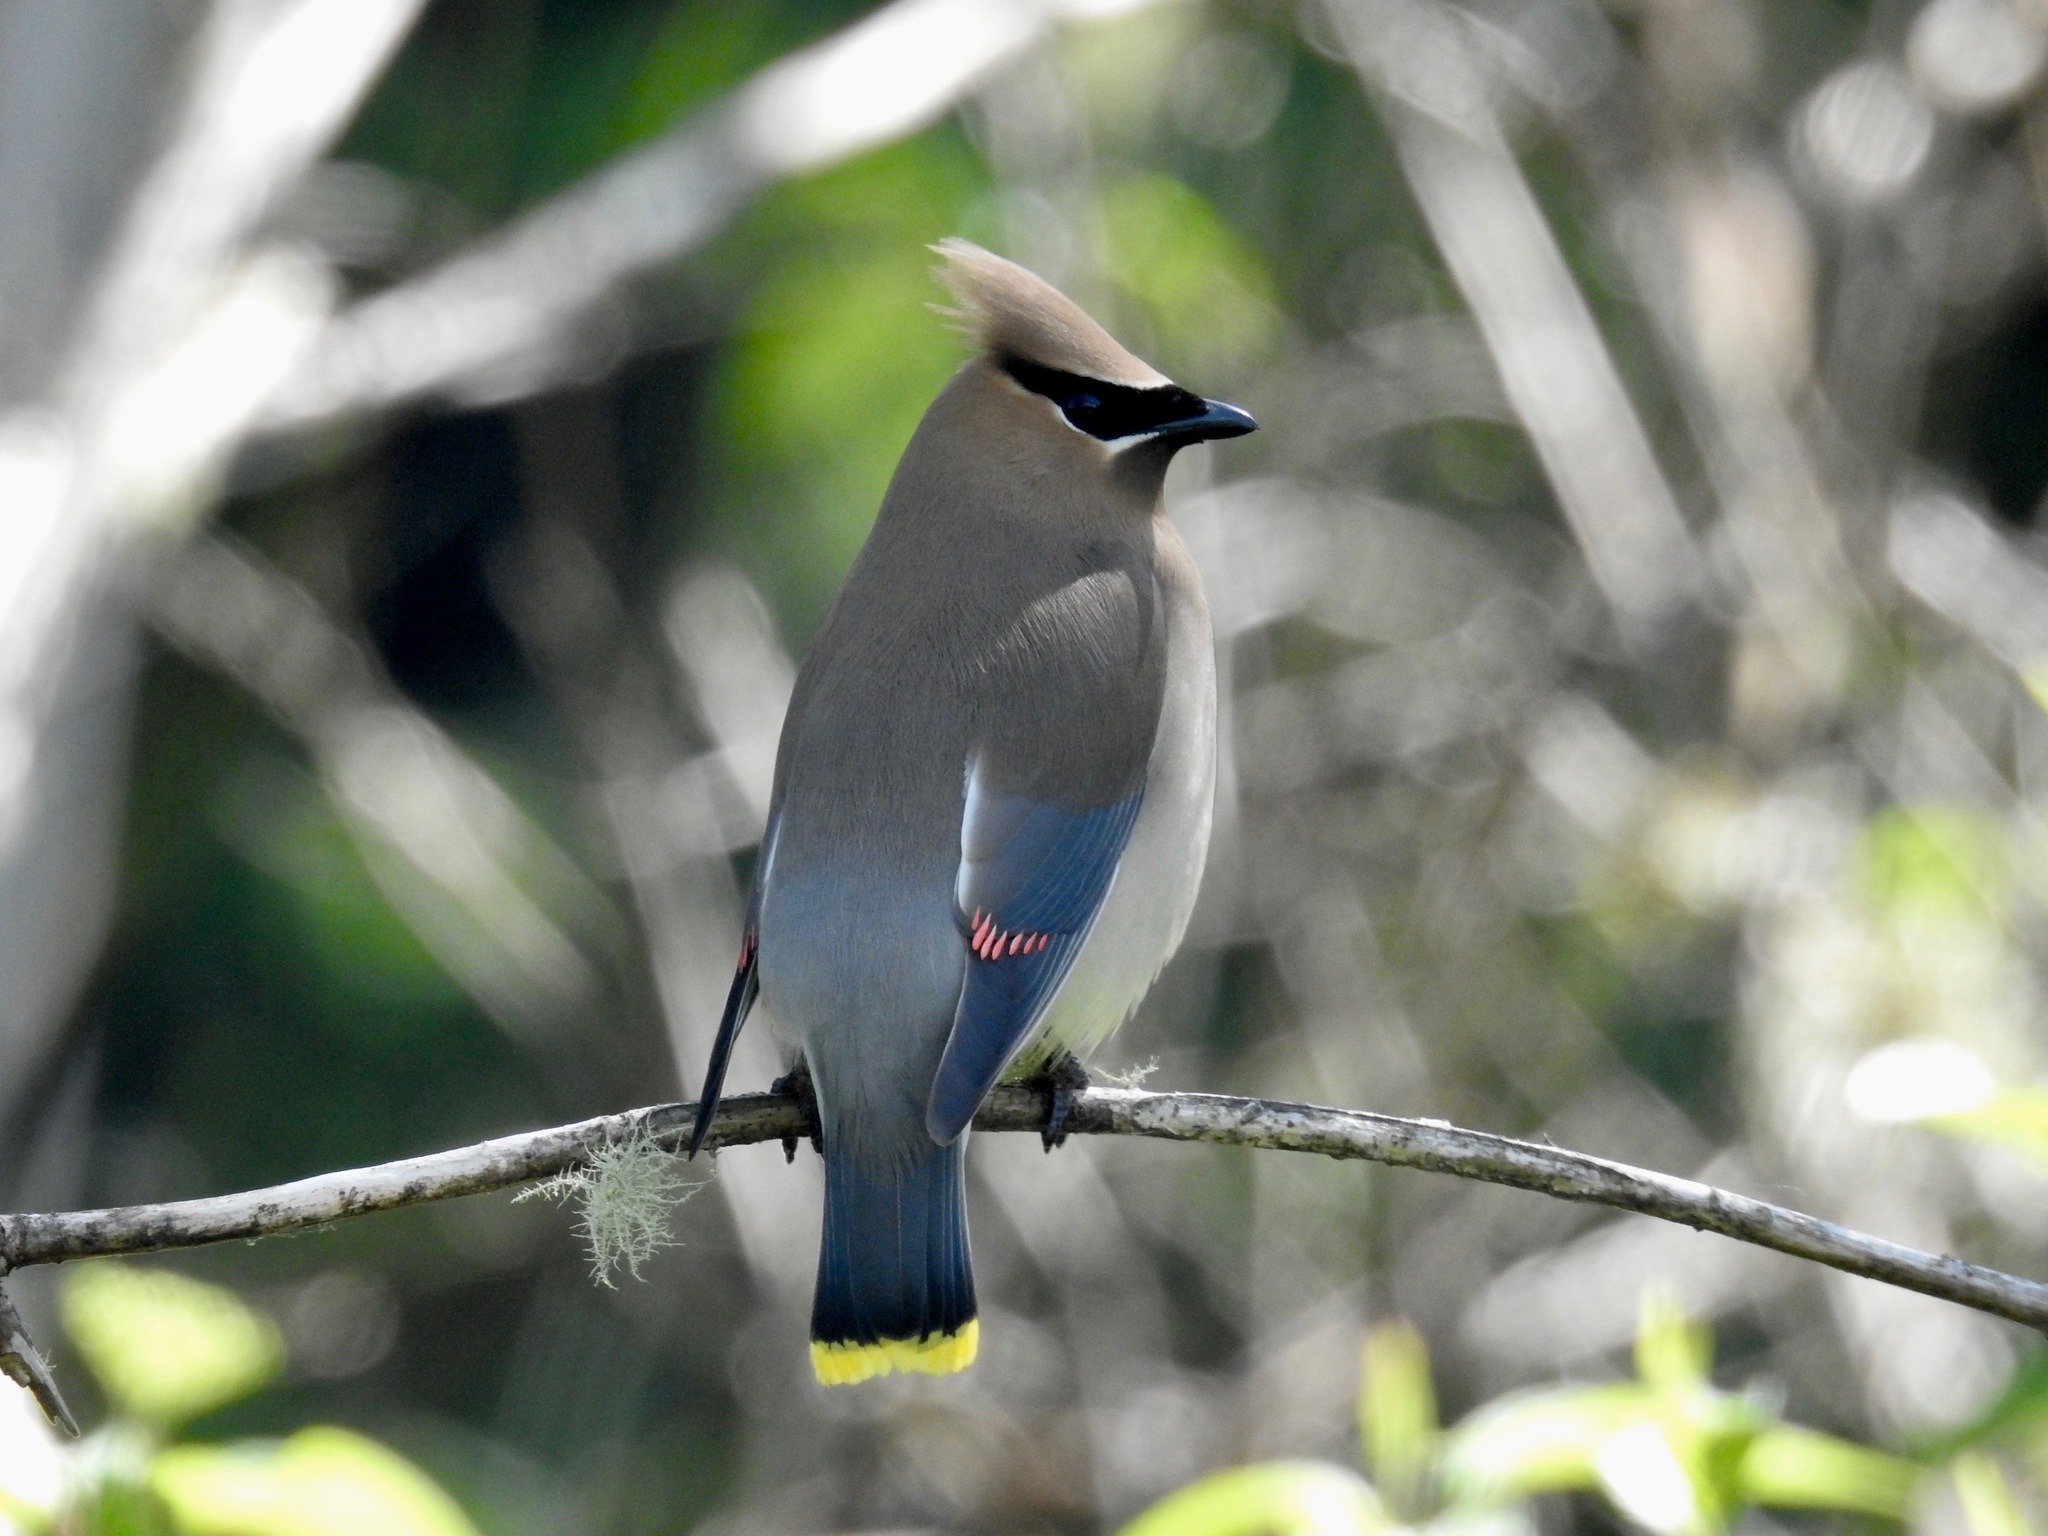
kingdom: Animalia
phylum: Chordata
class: Aves
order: Passeriformes
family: Bombycillidae
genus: Bombycilla
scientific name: Bombycilla cedrorum
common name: Cedar waxwing
